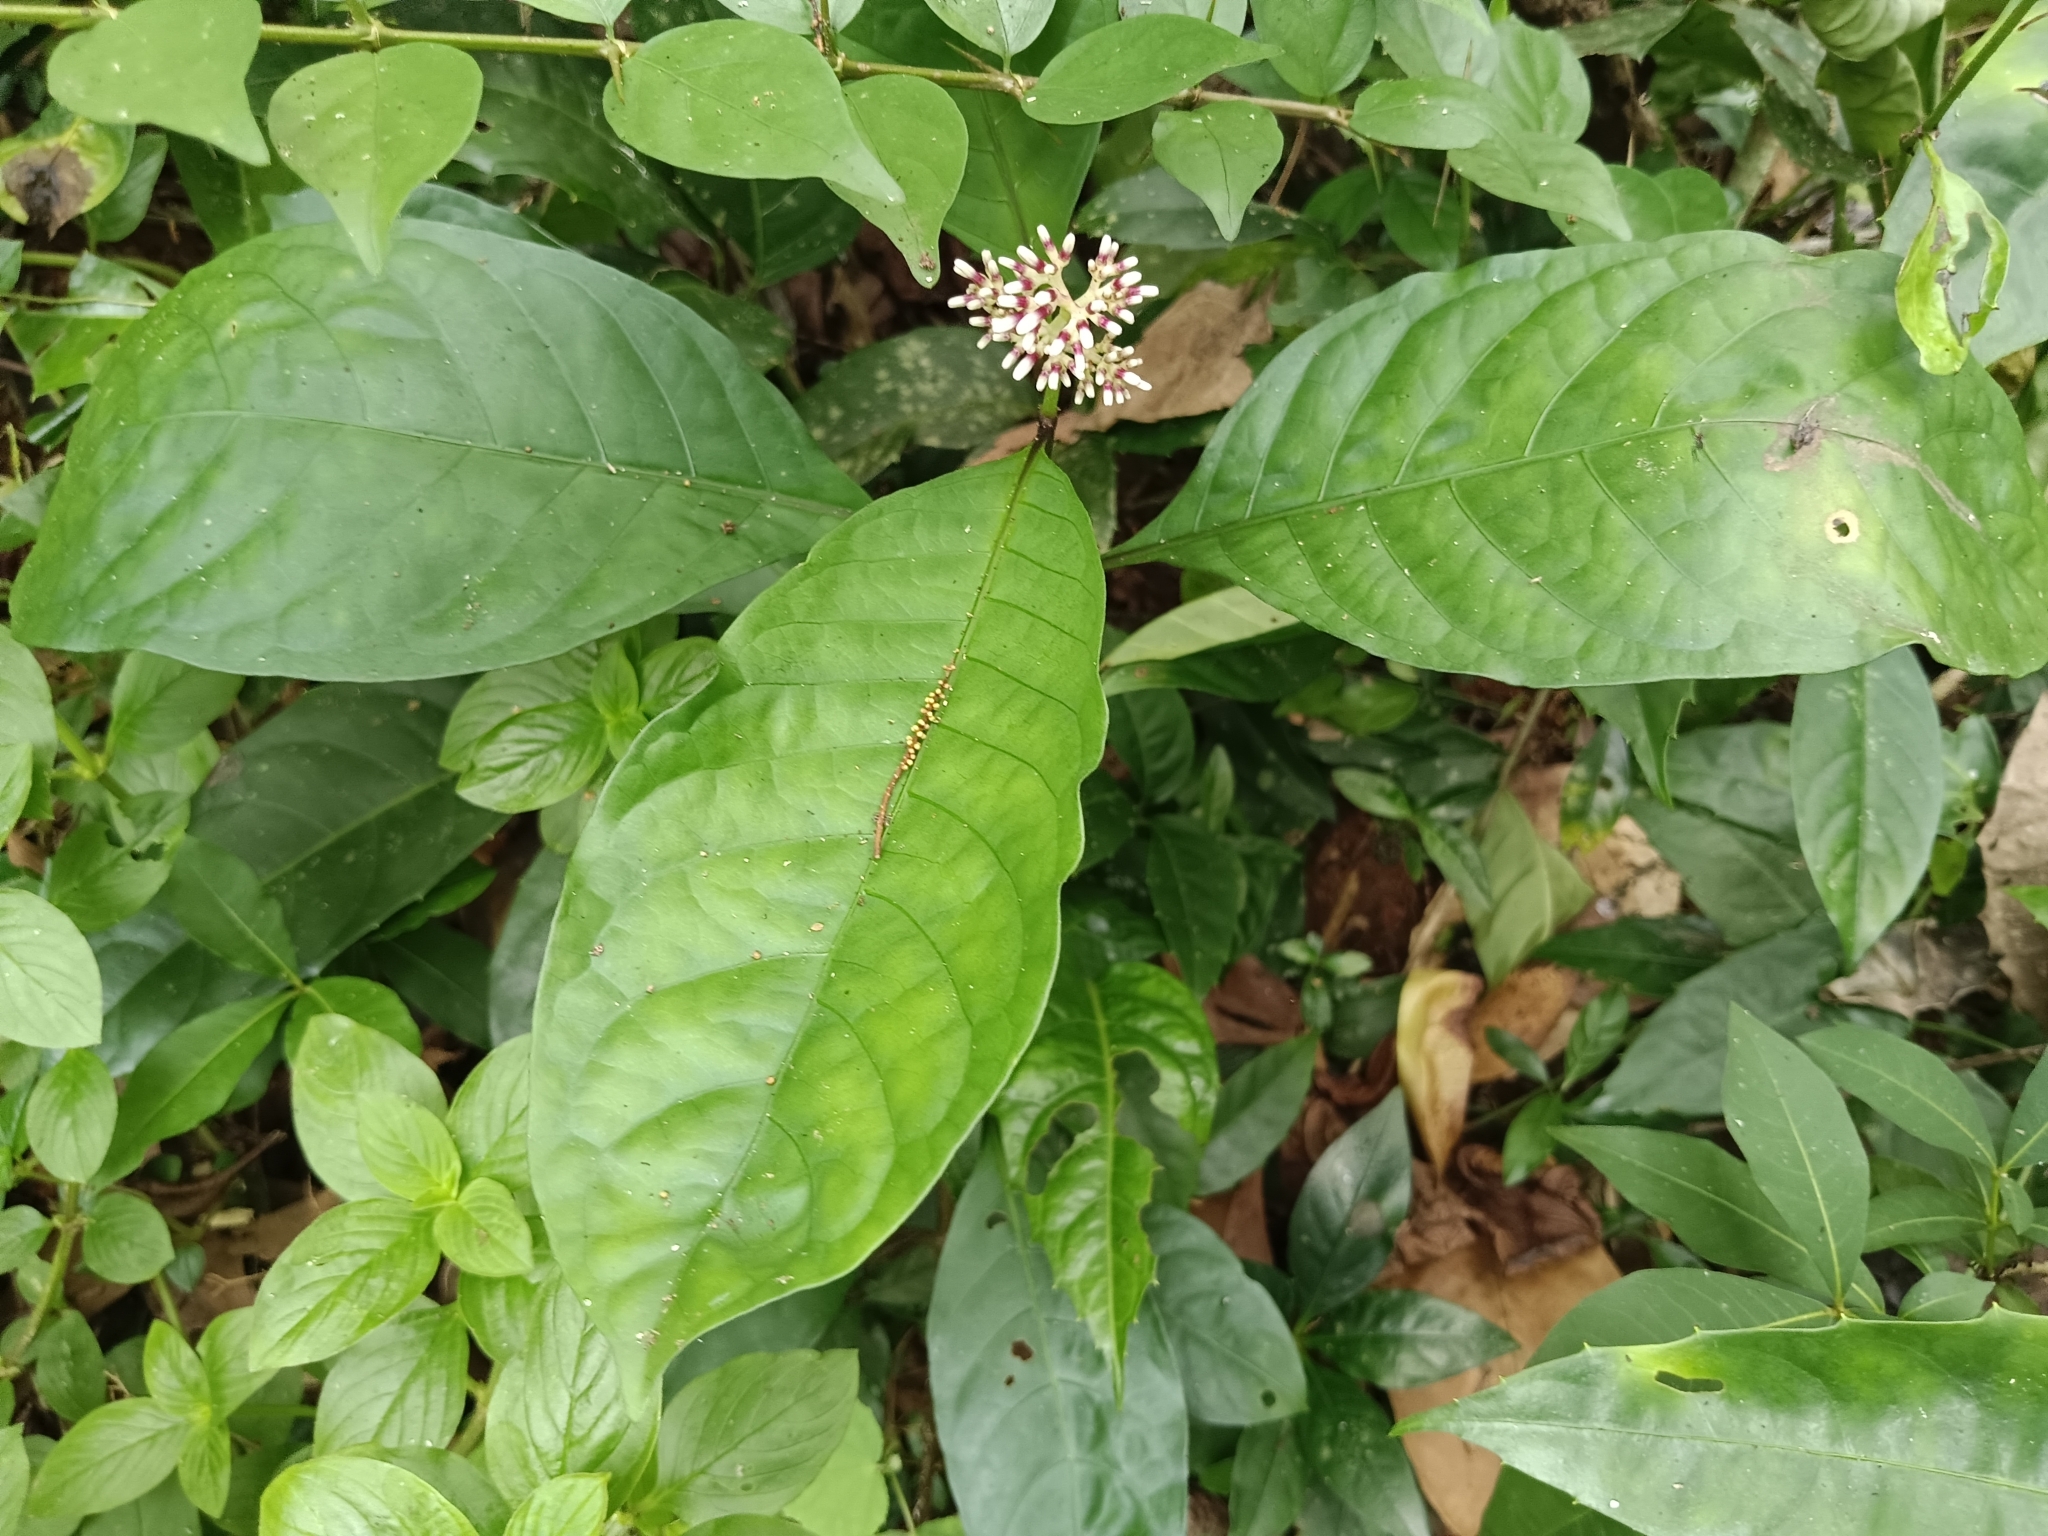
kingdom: Plantae
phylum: Tracheophyta
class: Magnoliopsida
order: Gentianales
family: Rubiaceae
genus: Chassalia
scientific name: Chassalia curviflora
